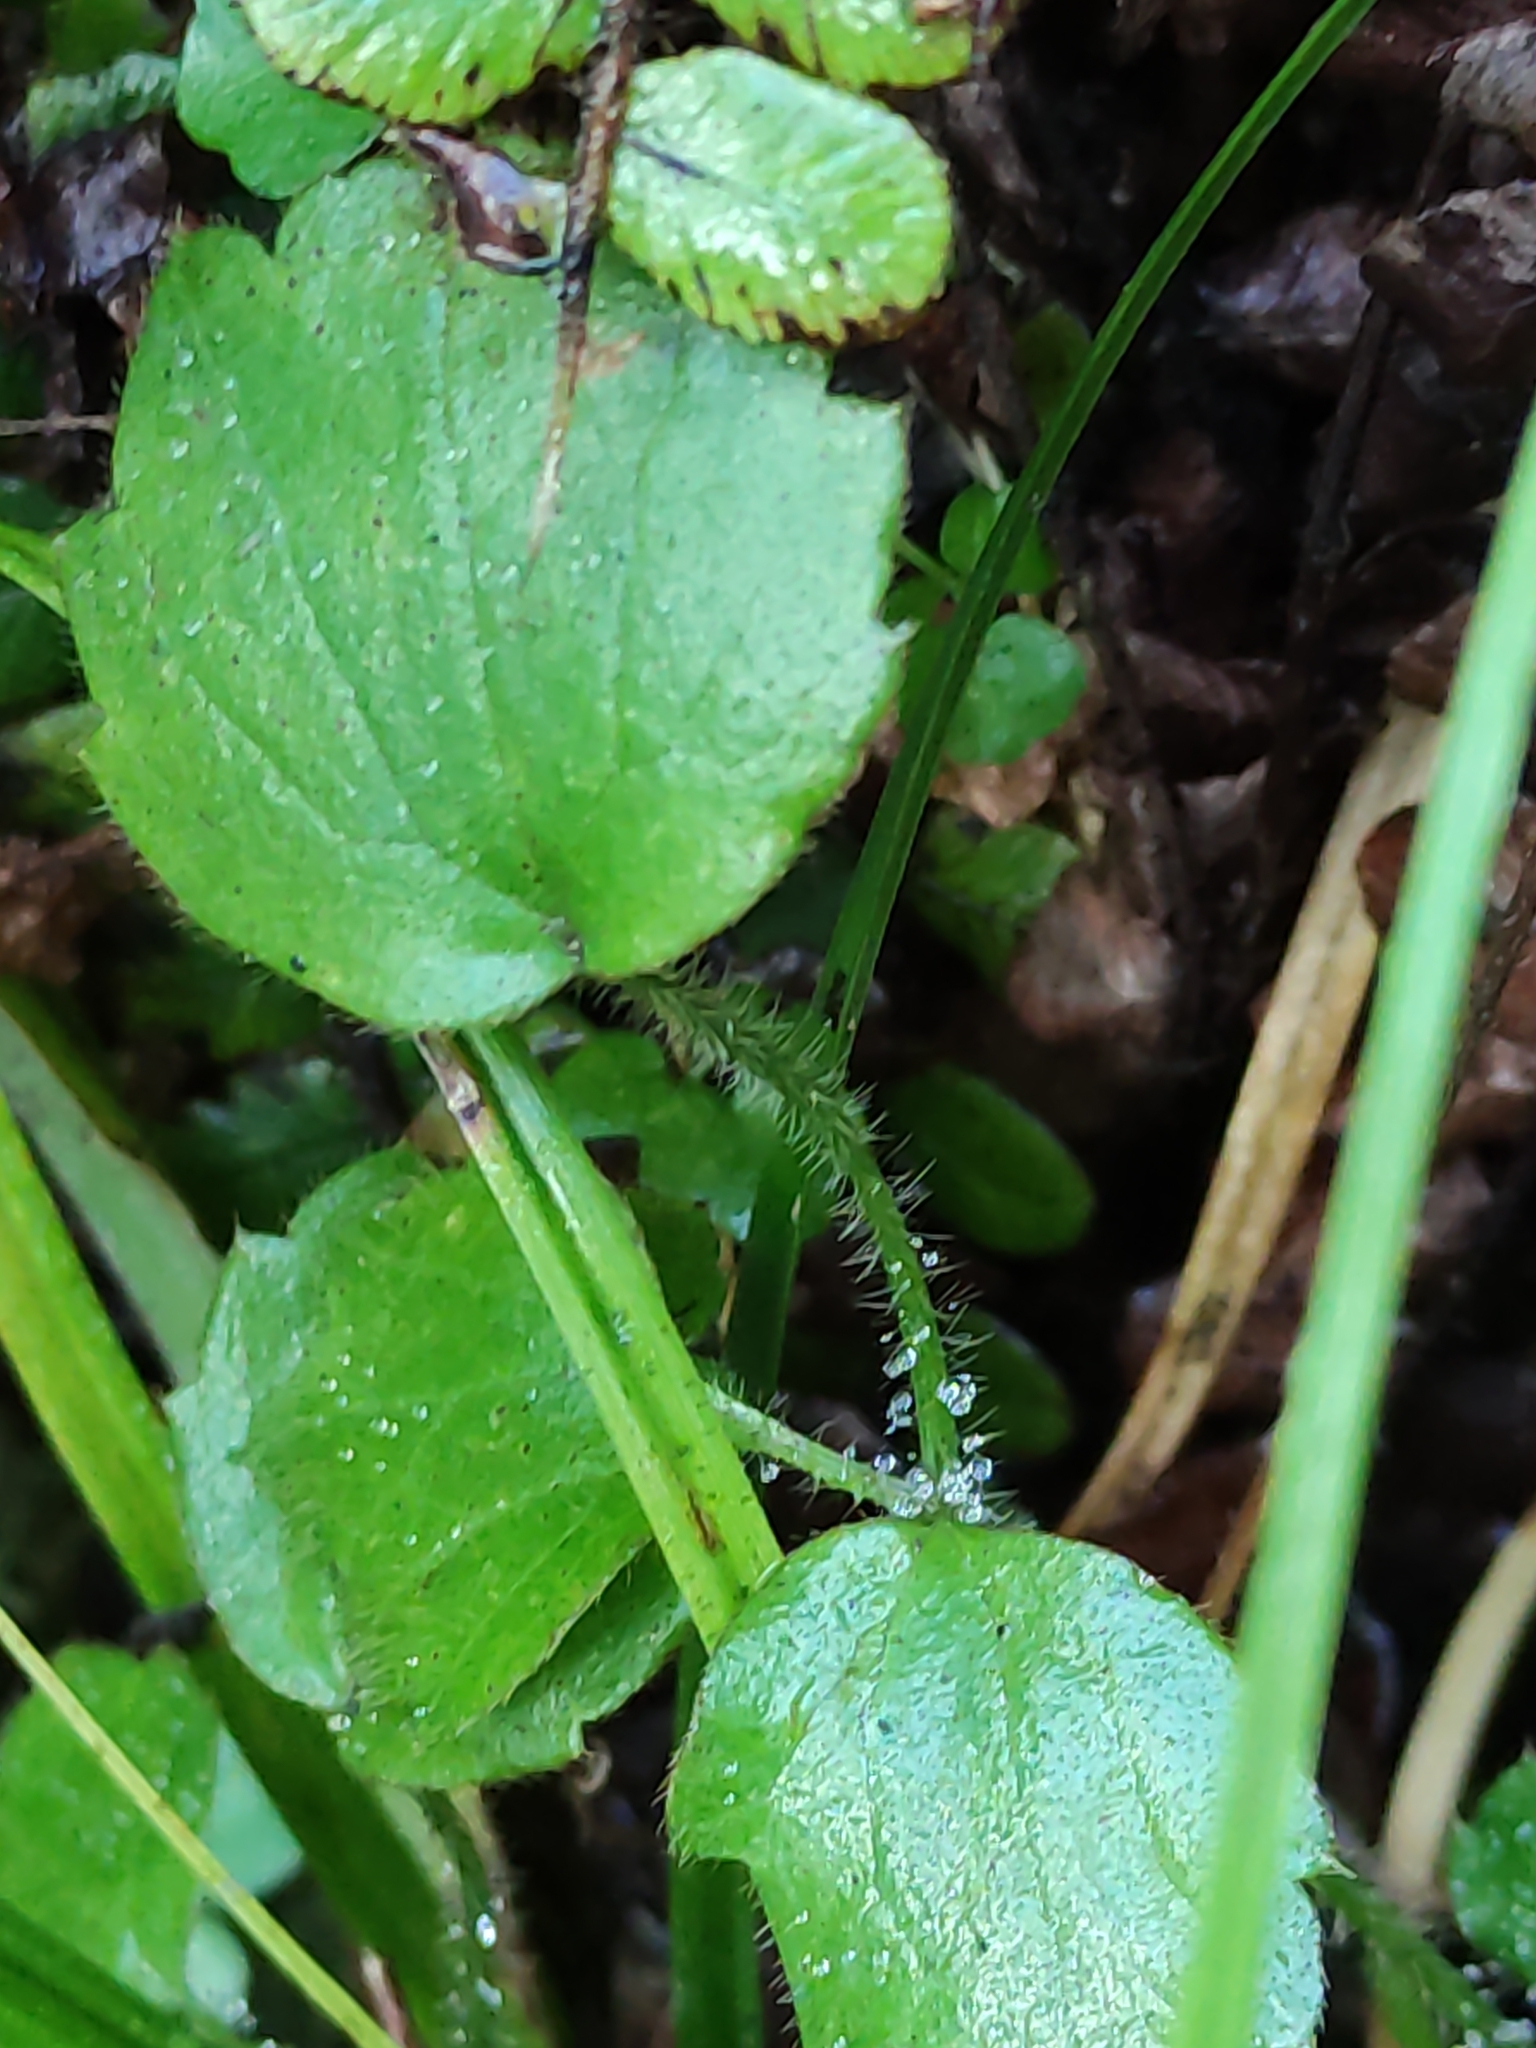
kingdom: Plantae
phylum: Tracheophyta
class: Magnoliopsida
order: Ranunculales
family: Ranunculaceae
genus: Ranunculus
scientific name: Ranunculus reflexus
